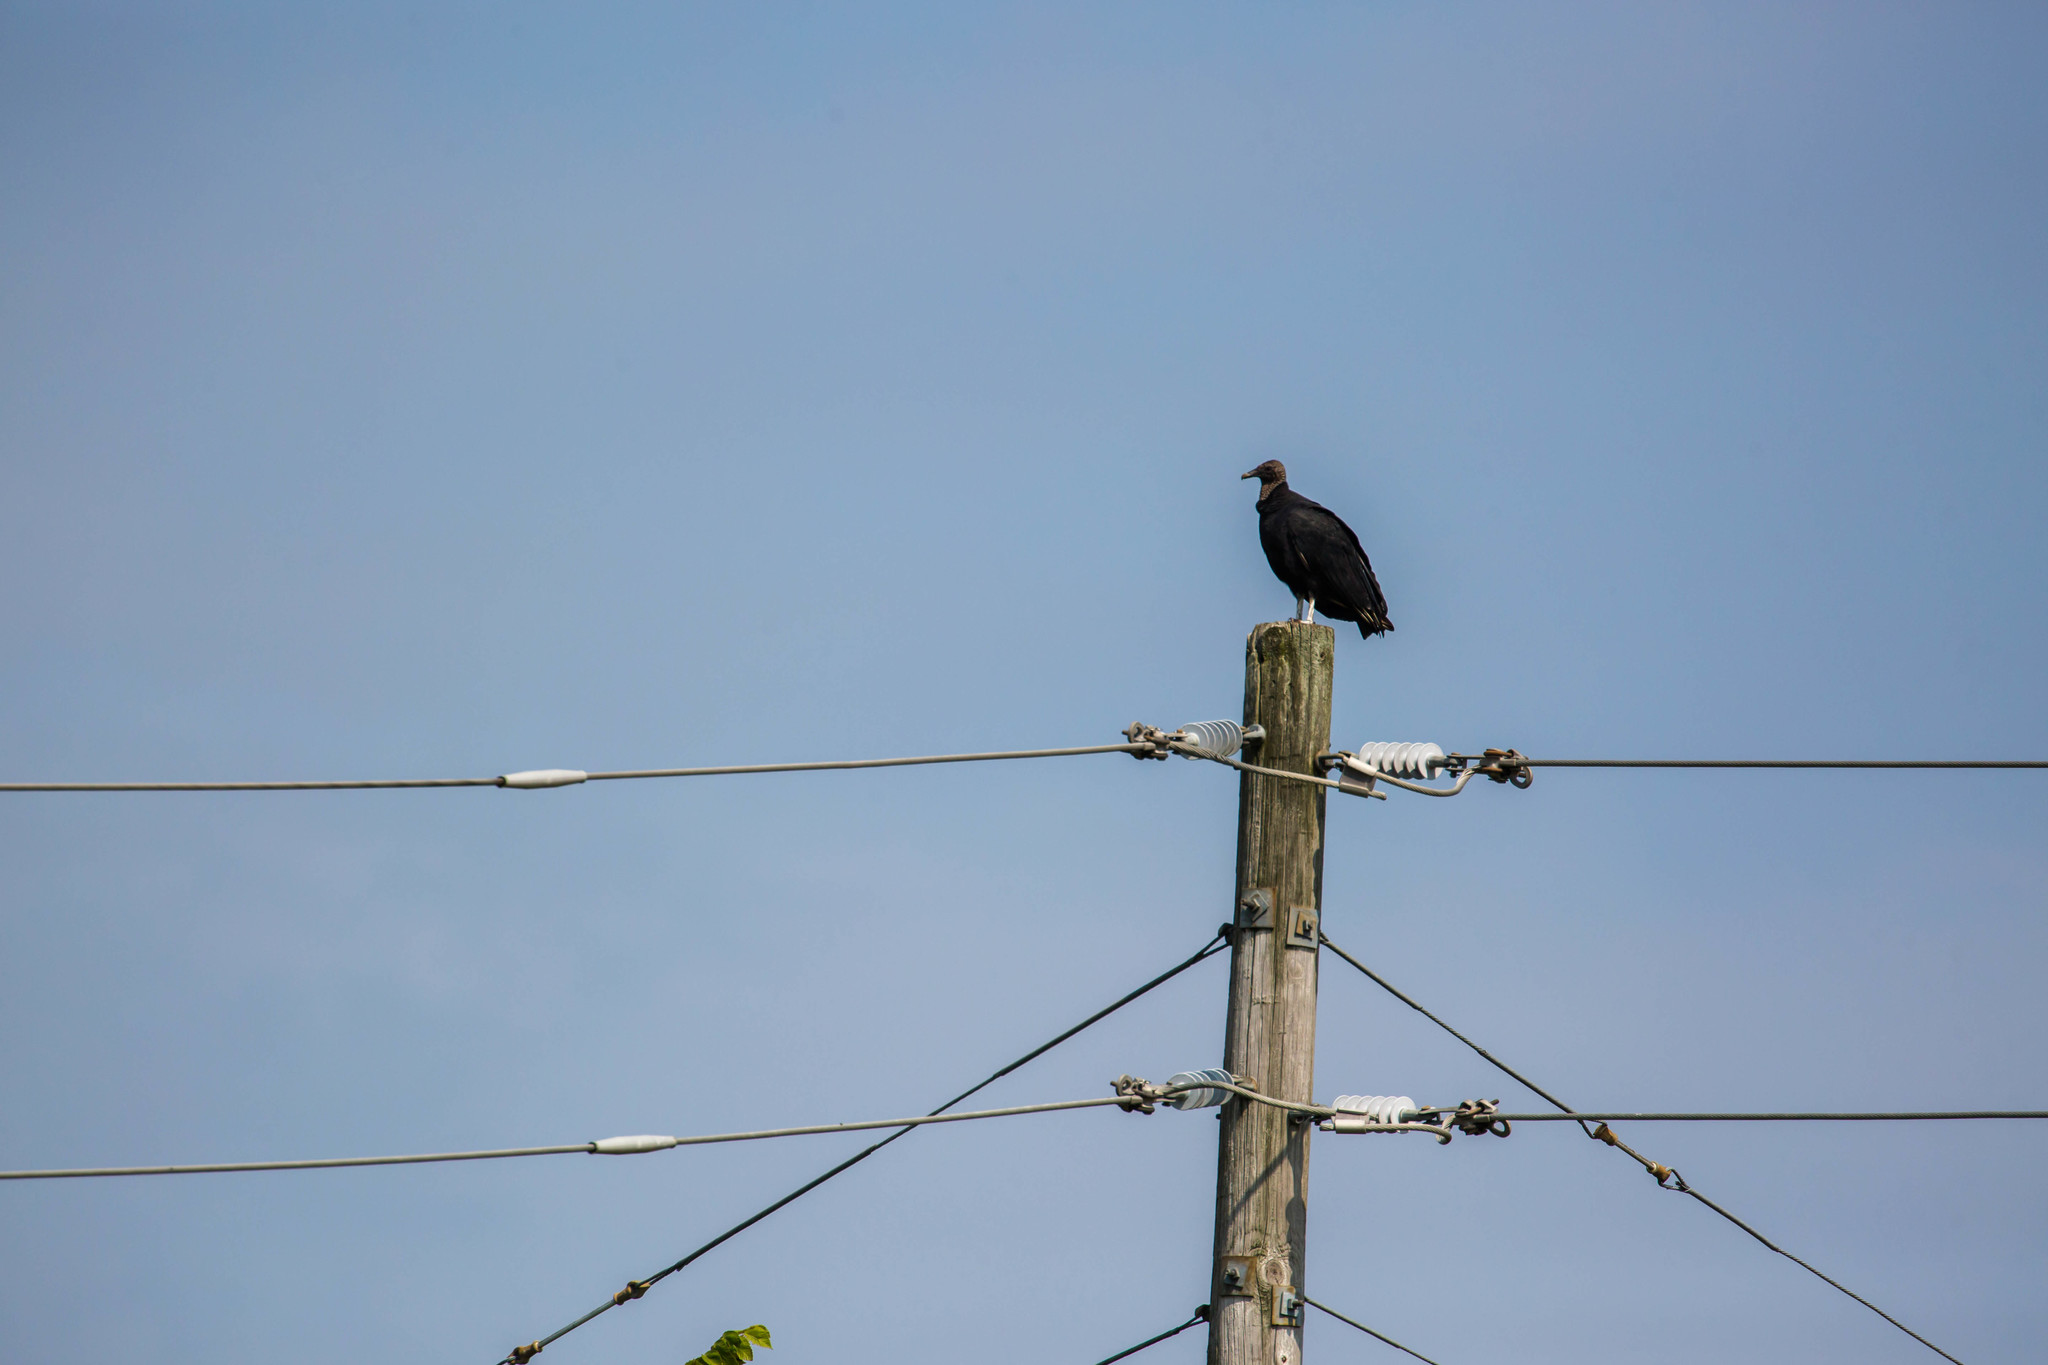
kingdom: Animalia
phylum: Chordata
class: Aves
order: Accipitriformes
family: Cathartidae
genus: Coragyps
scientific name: Coragyps atratus
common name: Black vulture
